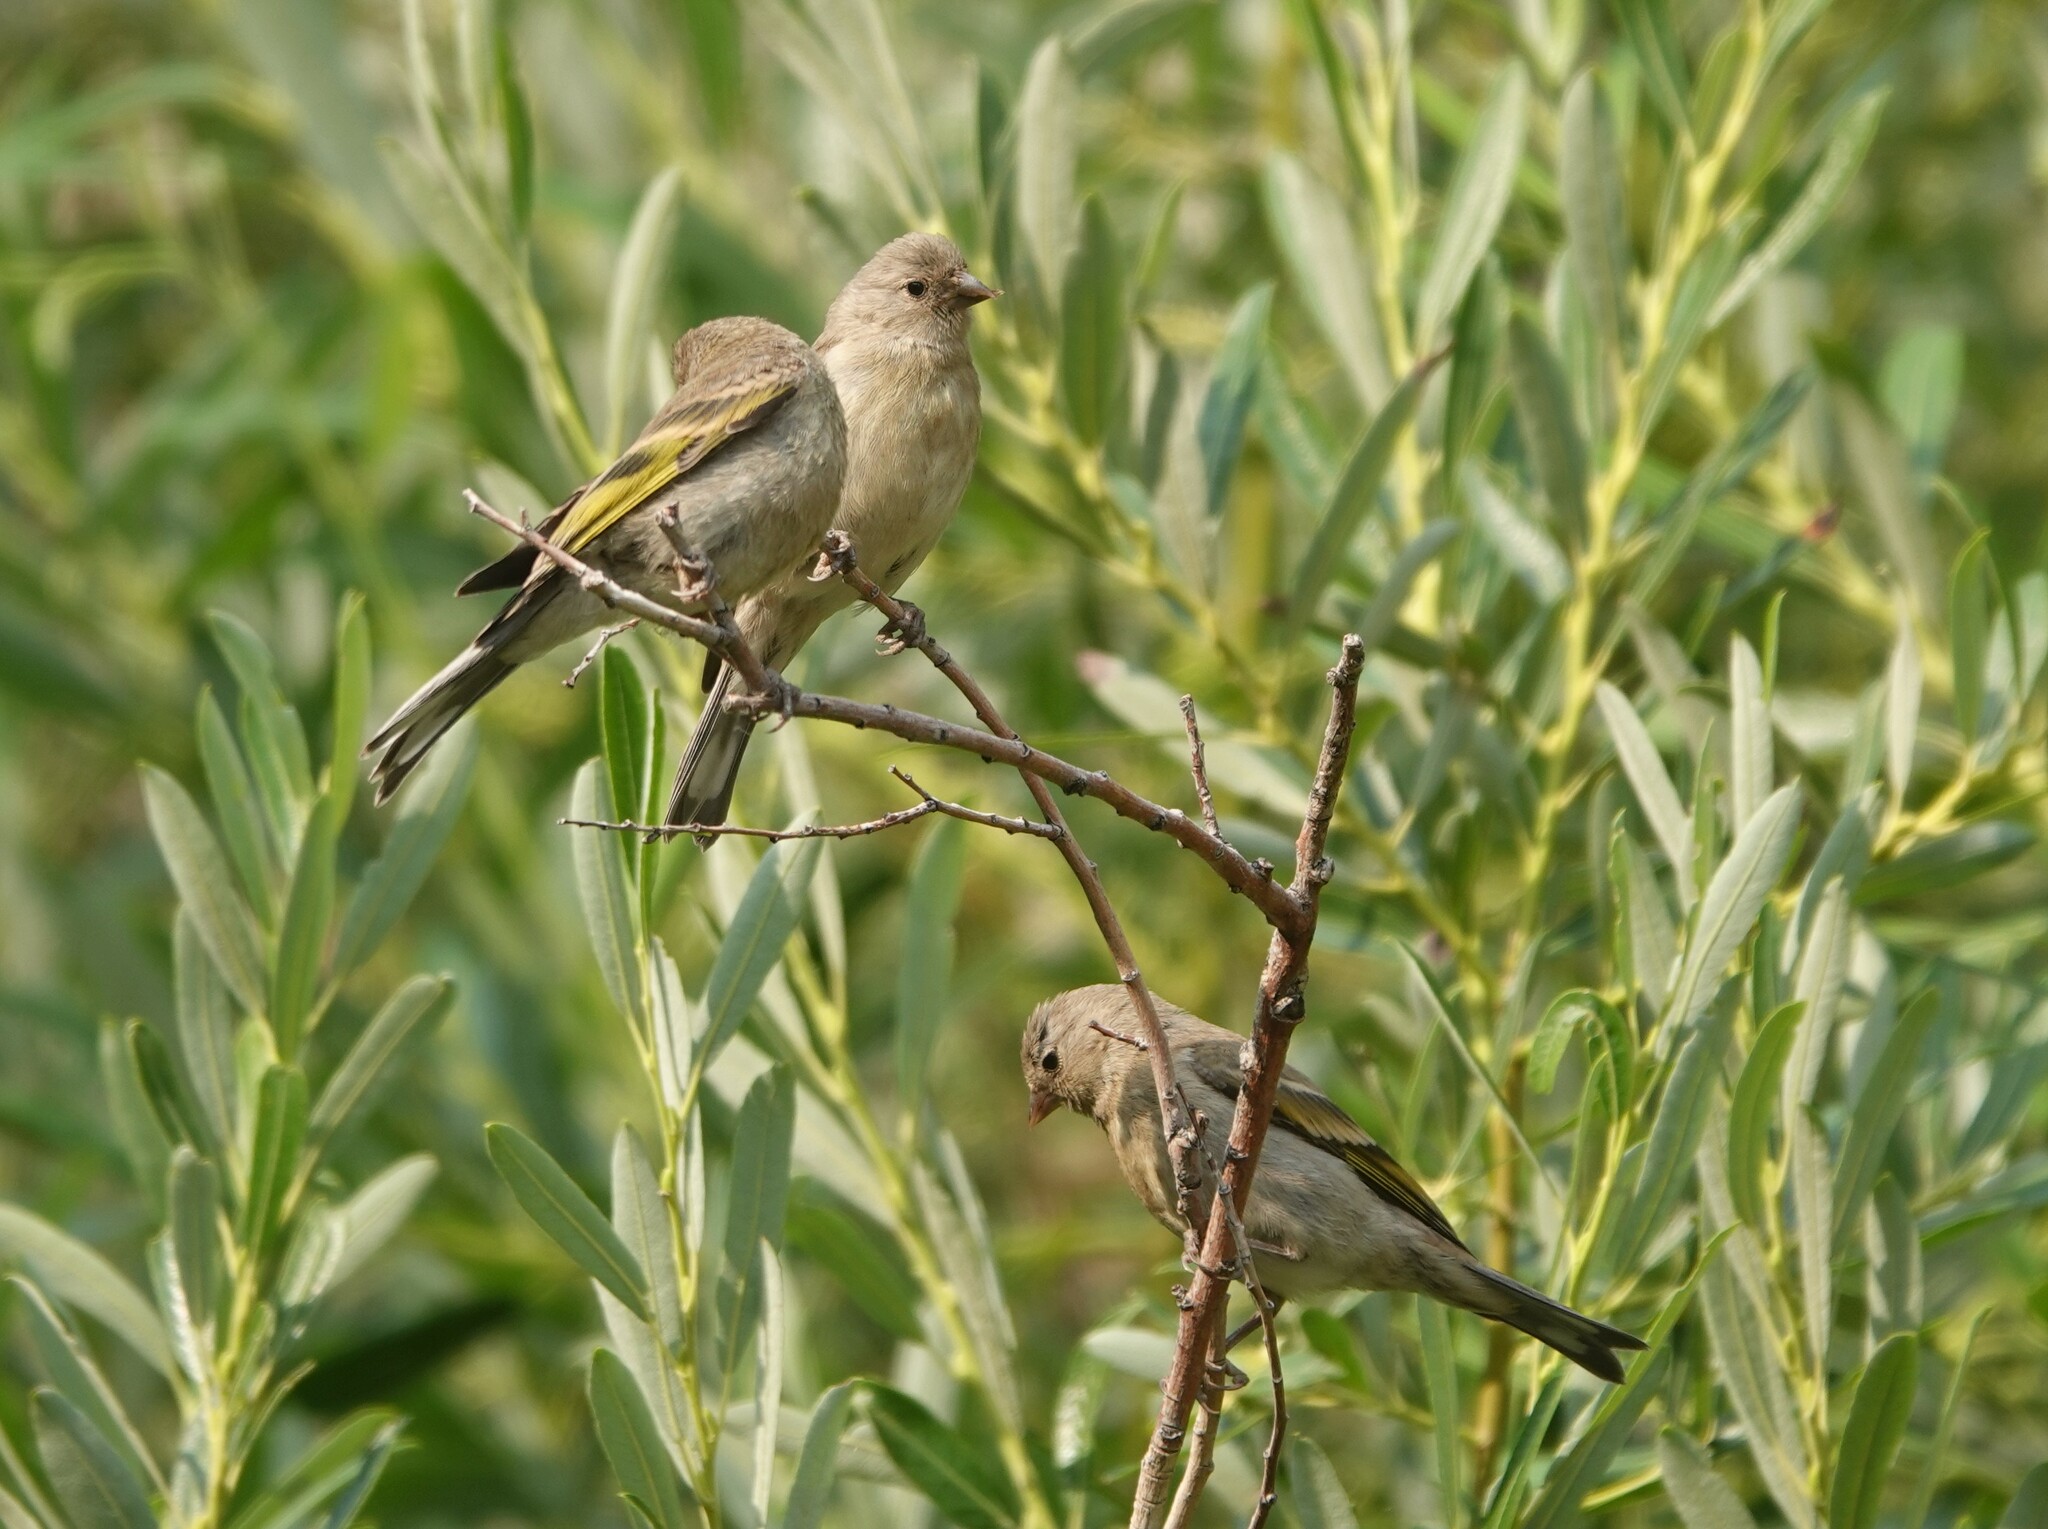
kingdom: Animalia
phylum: Chordata
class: Aves
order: Passeriformes
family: Fringillidae
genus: Spinus
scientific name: Spinus lawrencei
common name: Lawrence's goldfinch
